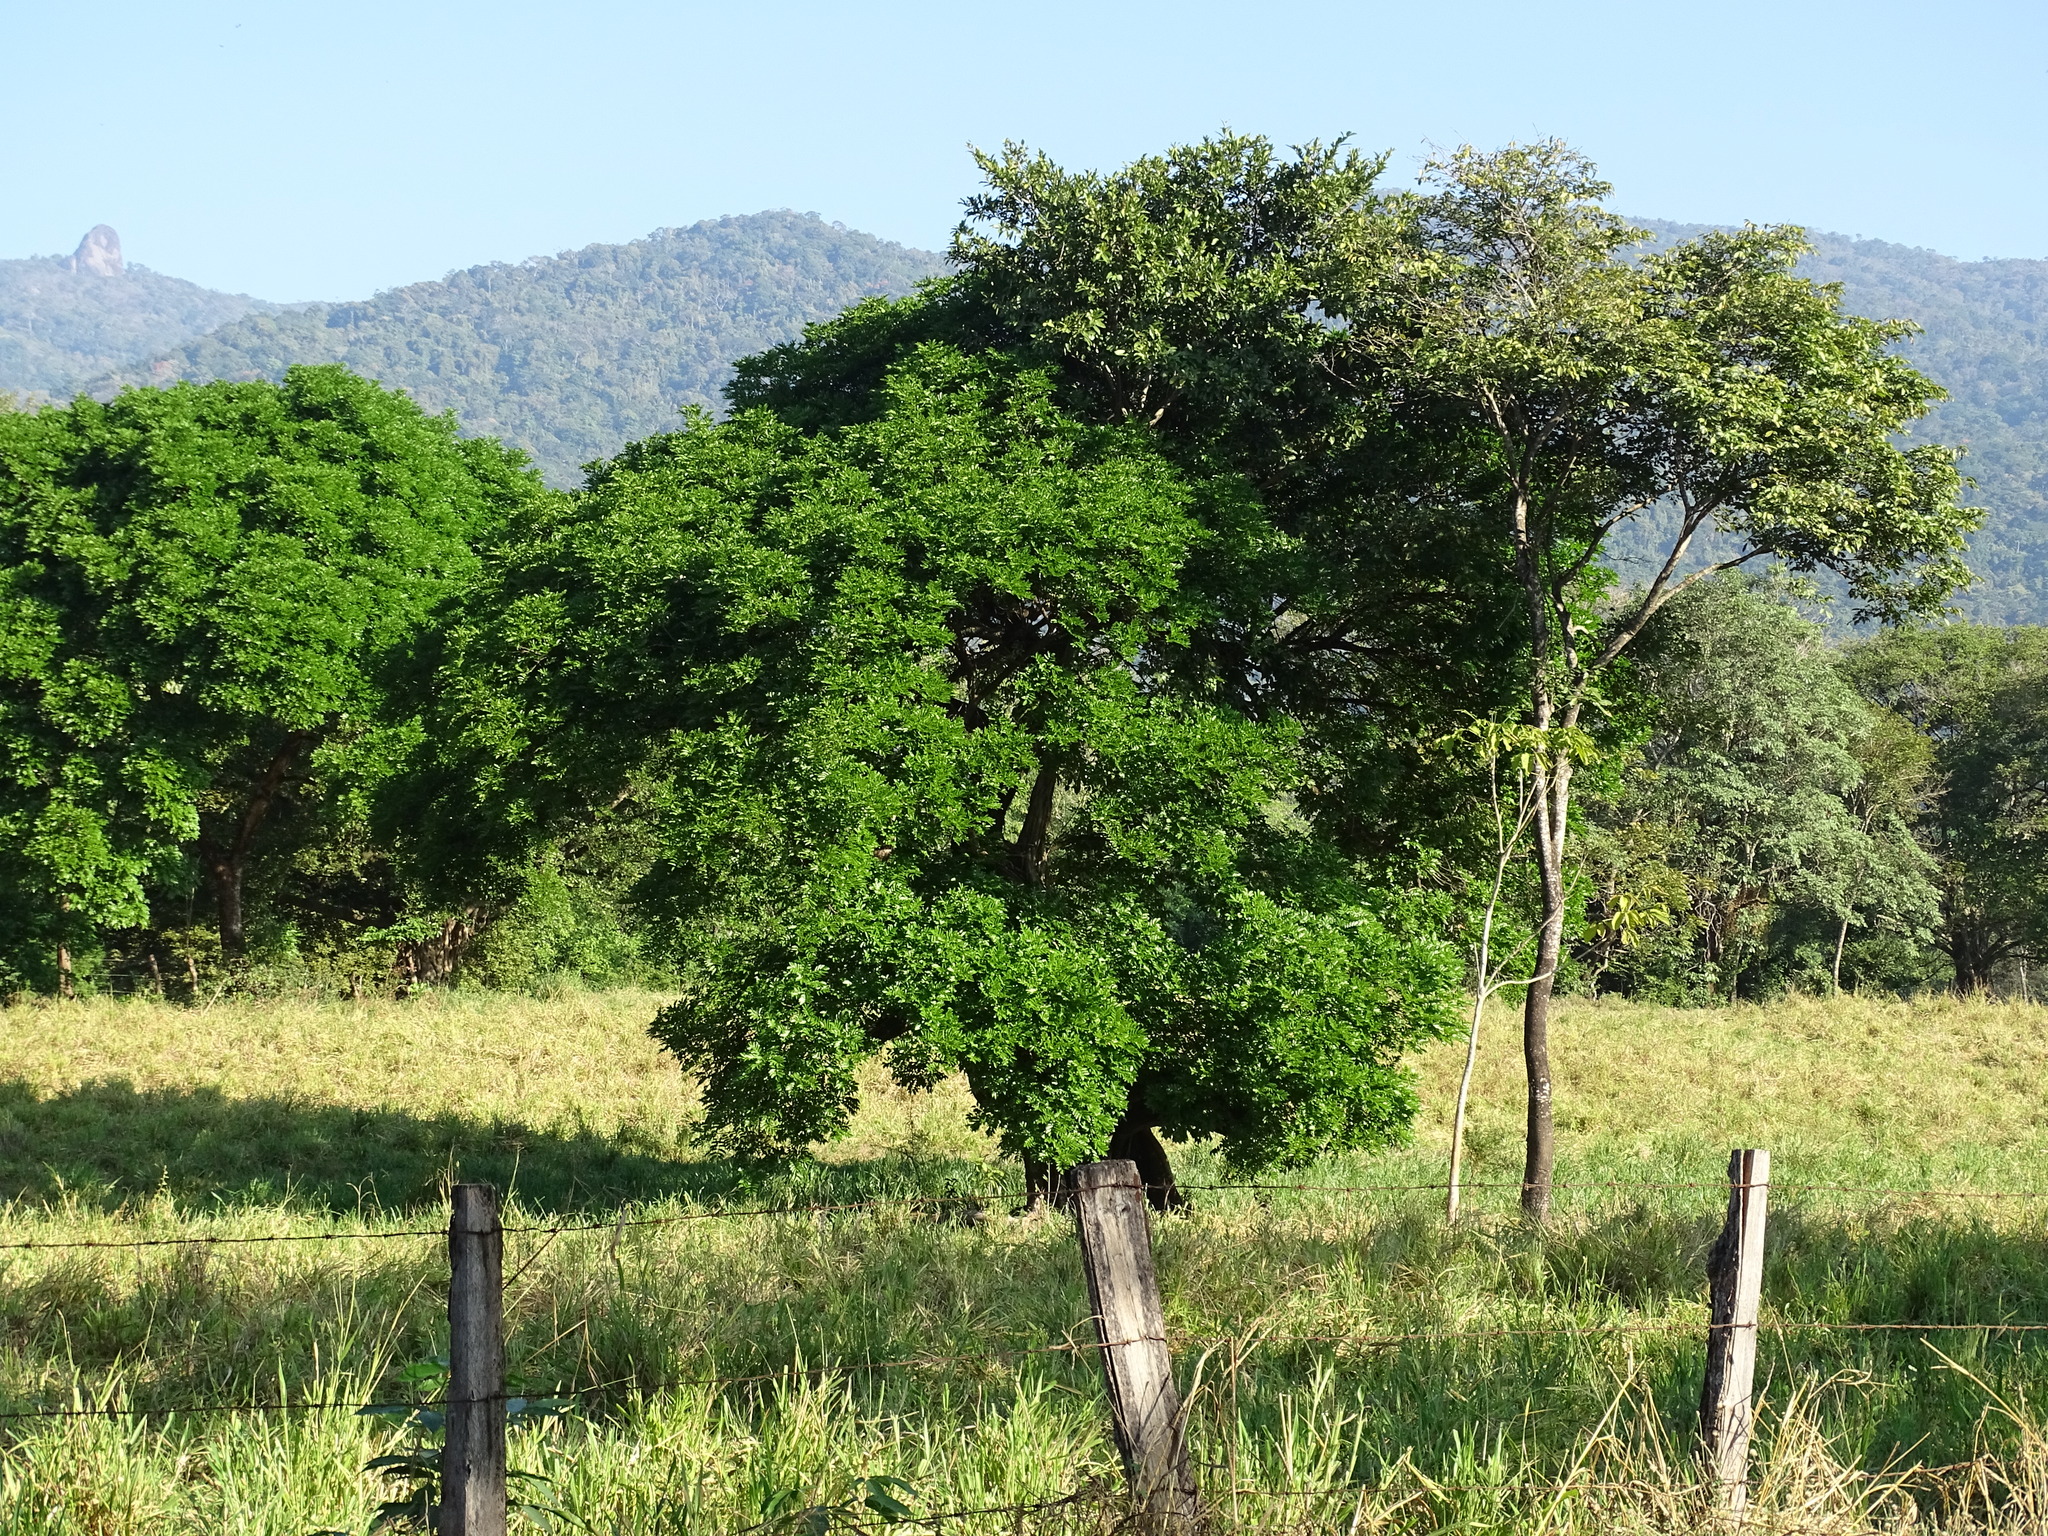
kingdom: Plantae
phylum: Tracheophyta
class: Magnoliopsida
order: Fabales
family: Fabaceae
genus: Andira
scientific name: Andira inermis
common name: Angelin
